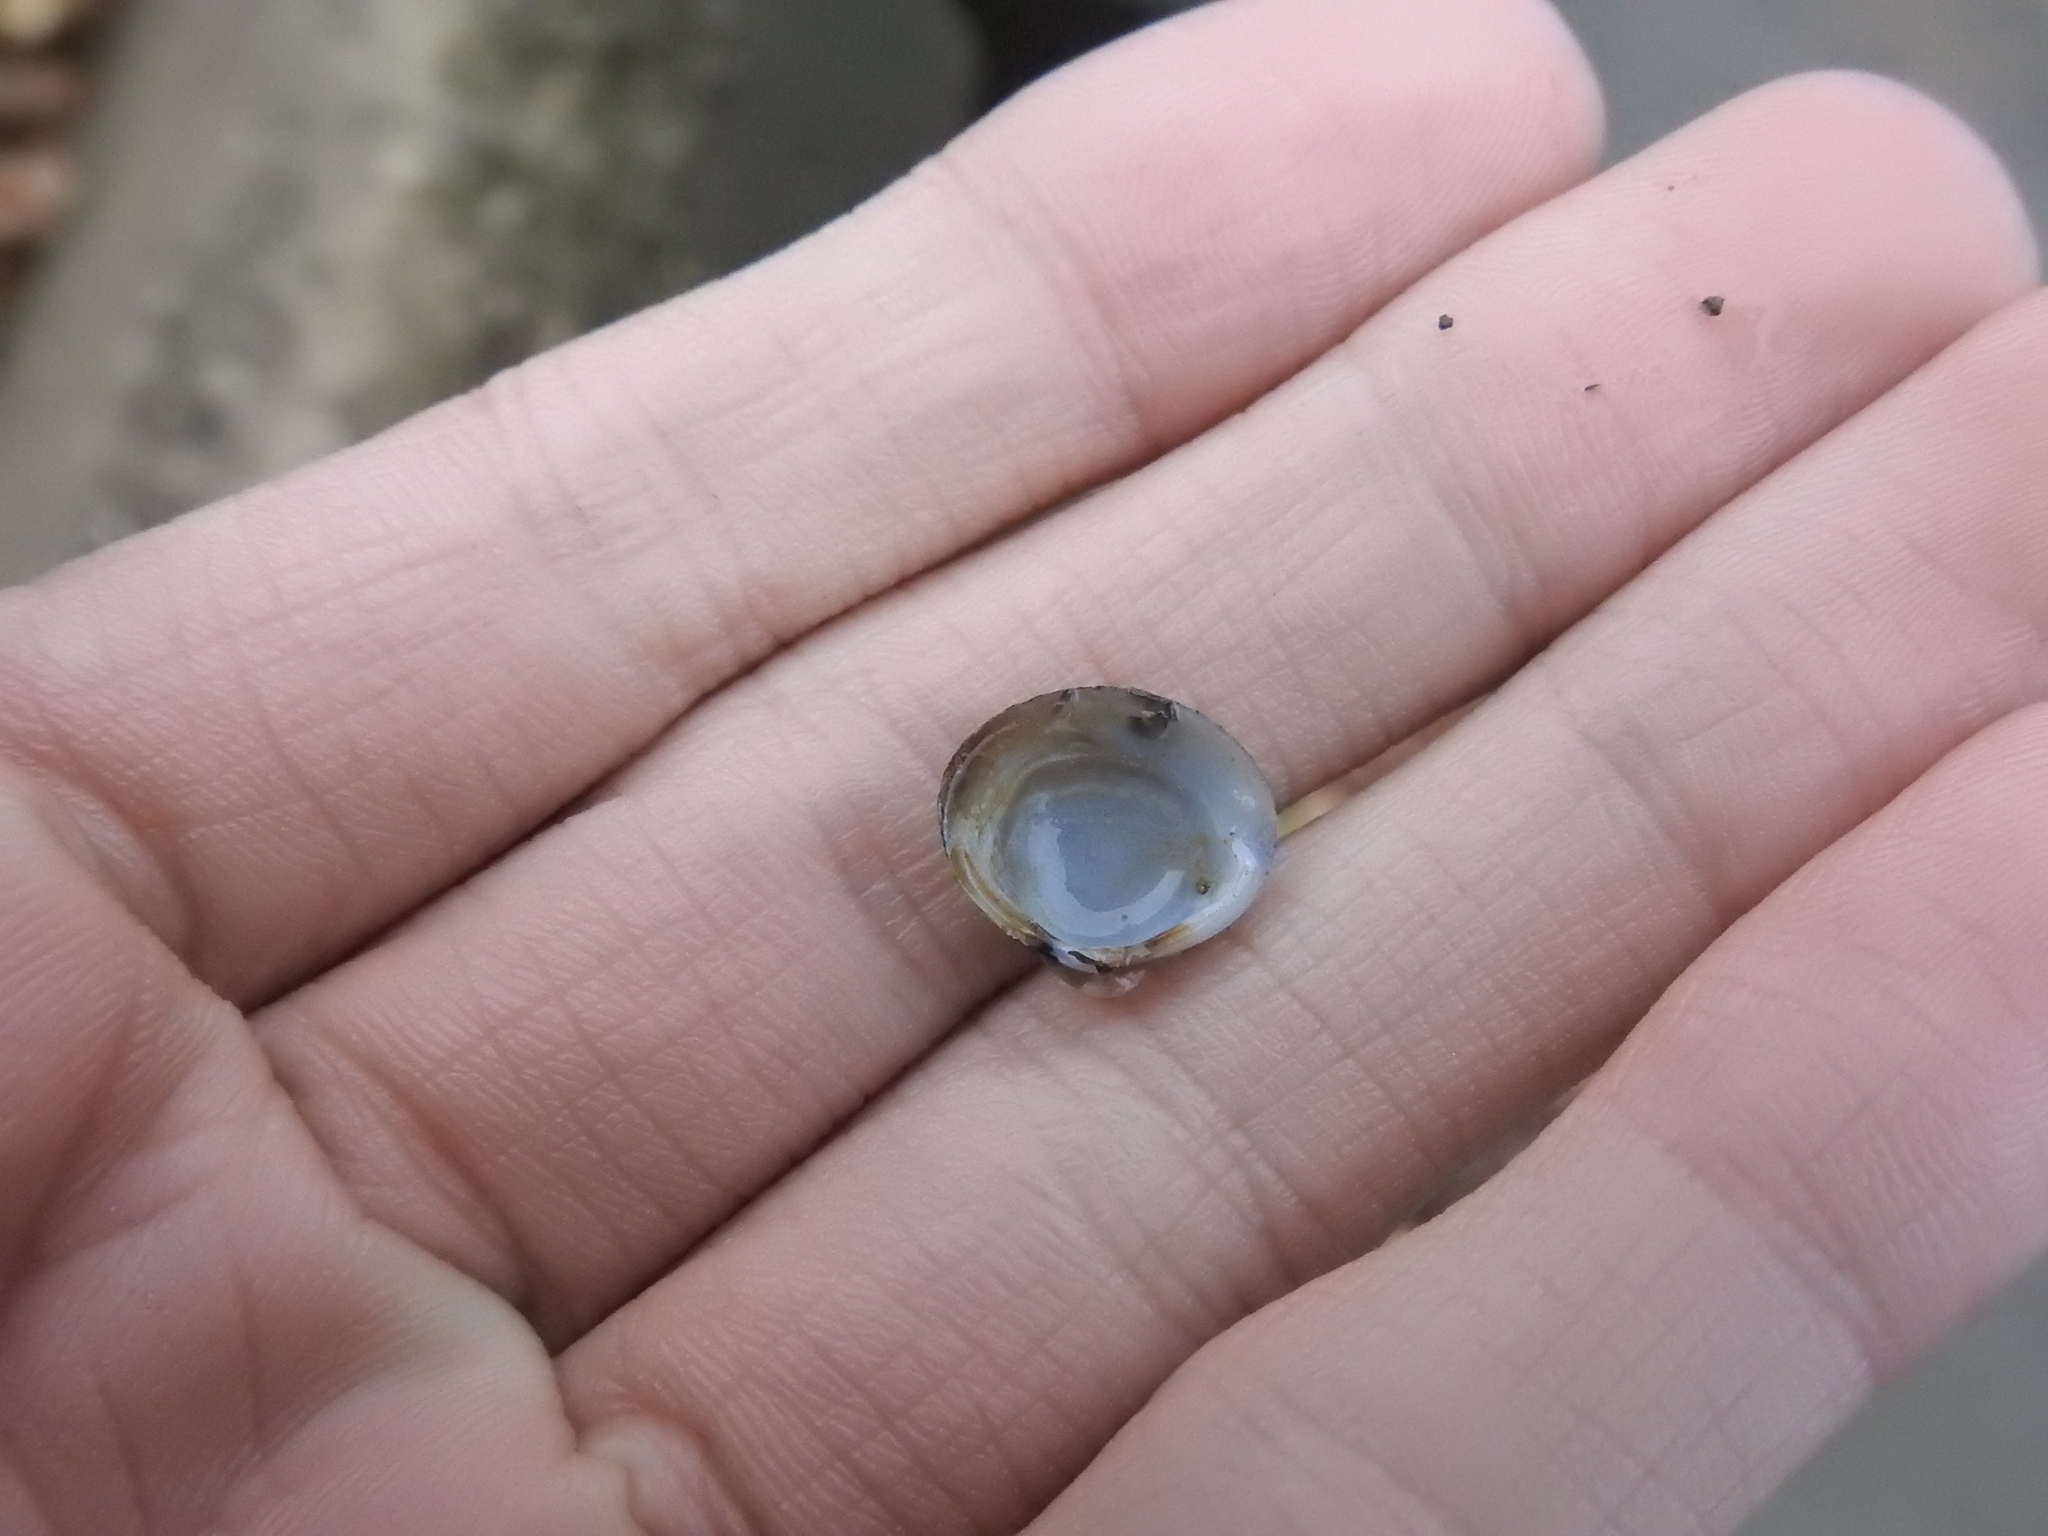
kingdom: Animalia
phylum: Mollusca
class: Bivalvia
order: Venerida
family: Cyrenidae
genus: Corbicula
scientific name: Corbicula fluminea
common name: Asian clam
